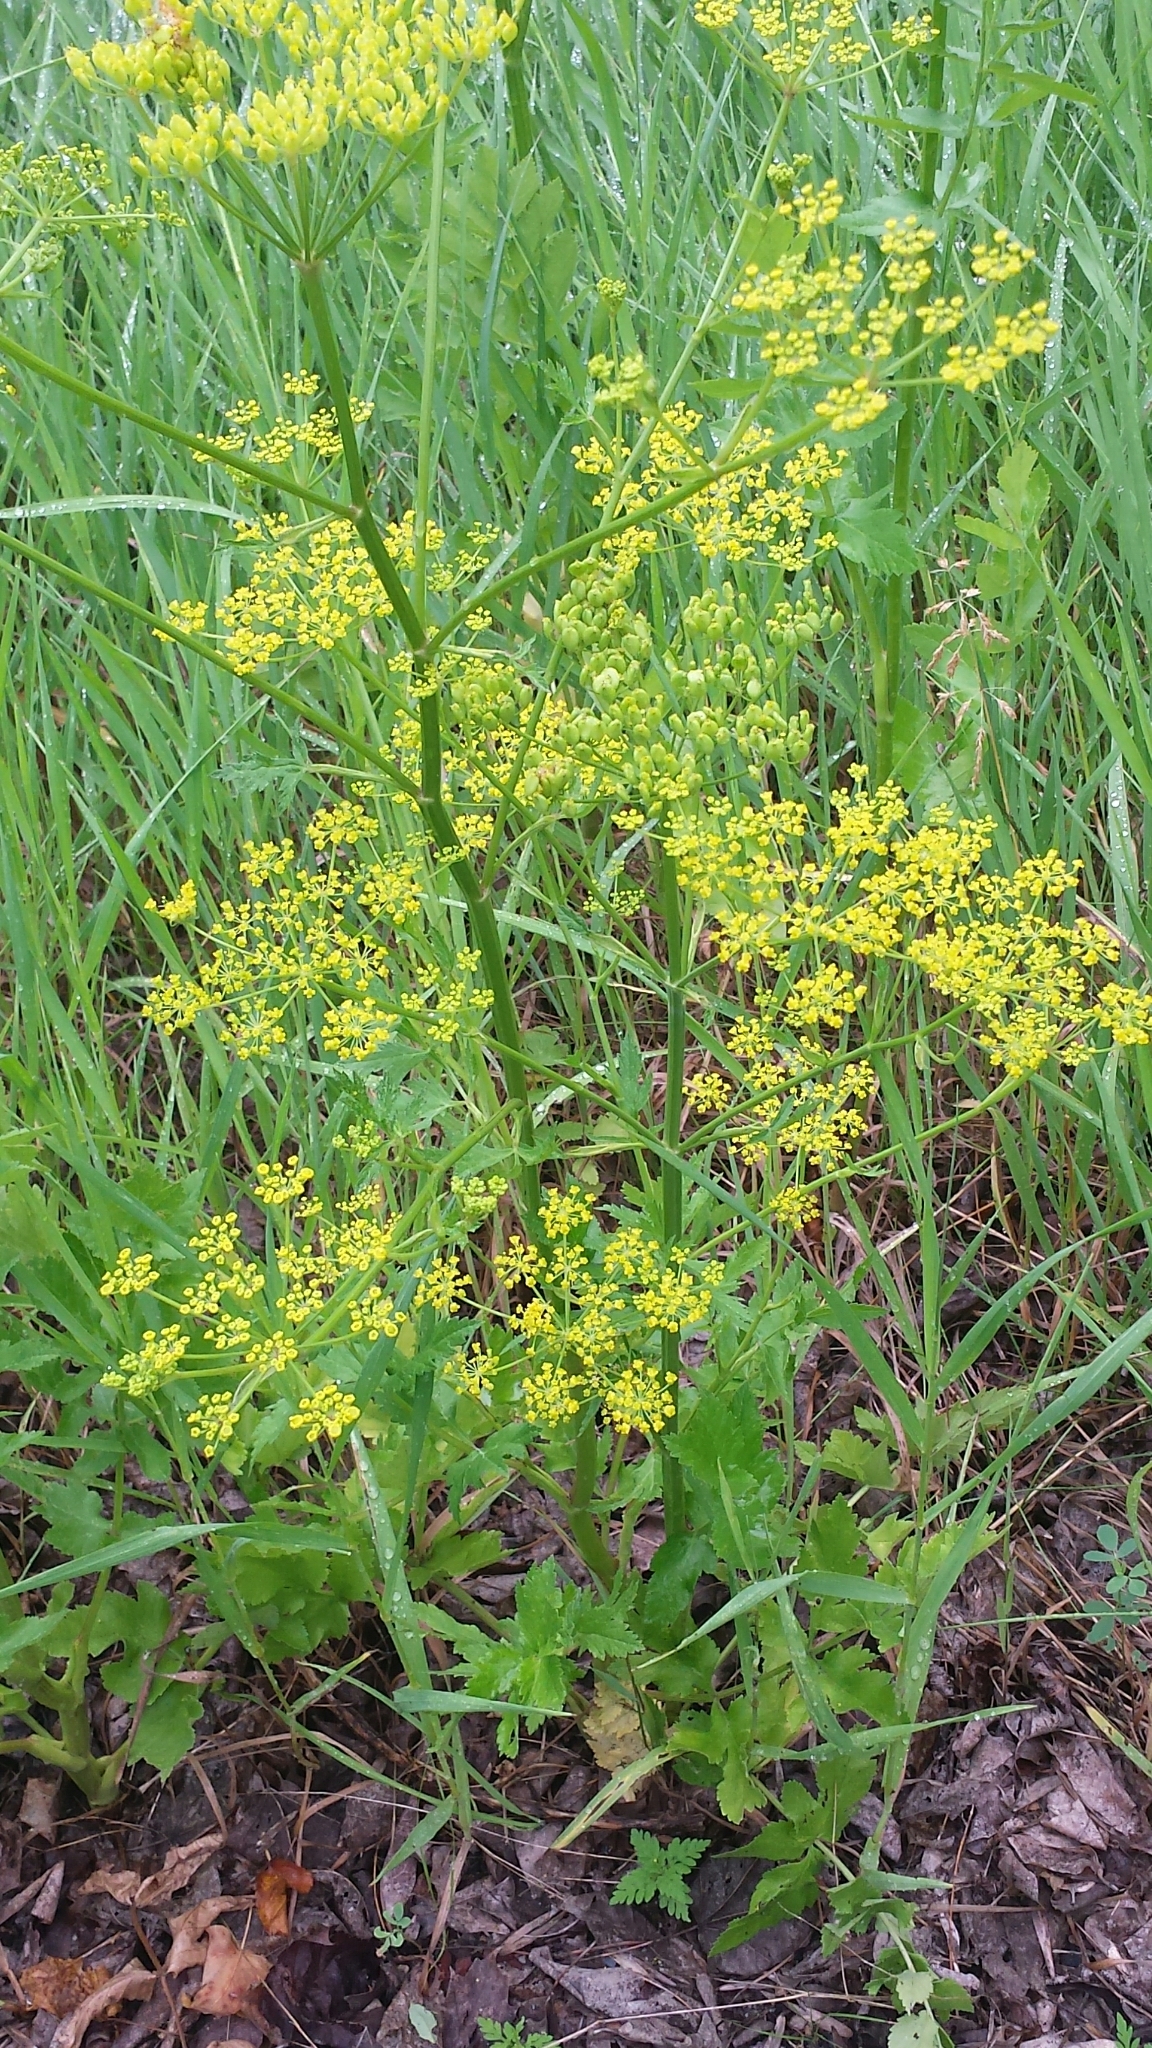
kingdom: Plantae
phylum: Tracheophyta
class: Magnoliopsida
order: Apiales
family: Apiaceae
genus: Pastinaca
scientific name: Pastinaca sativa
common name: Wild parsnip
